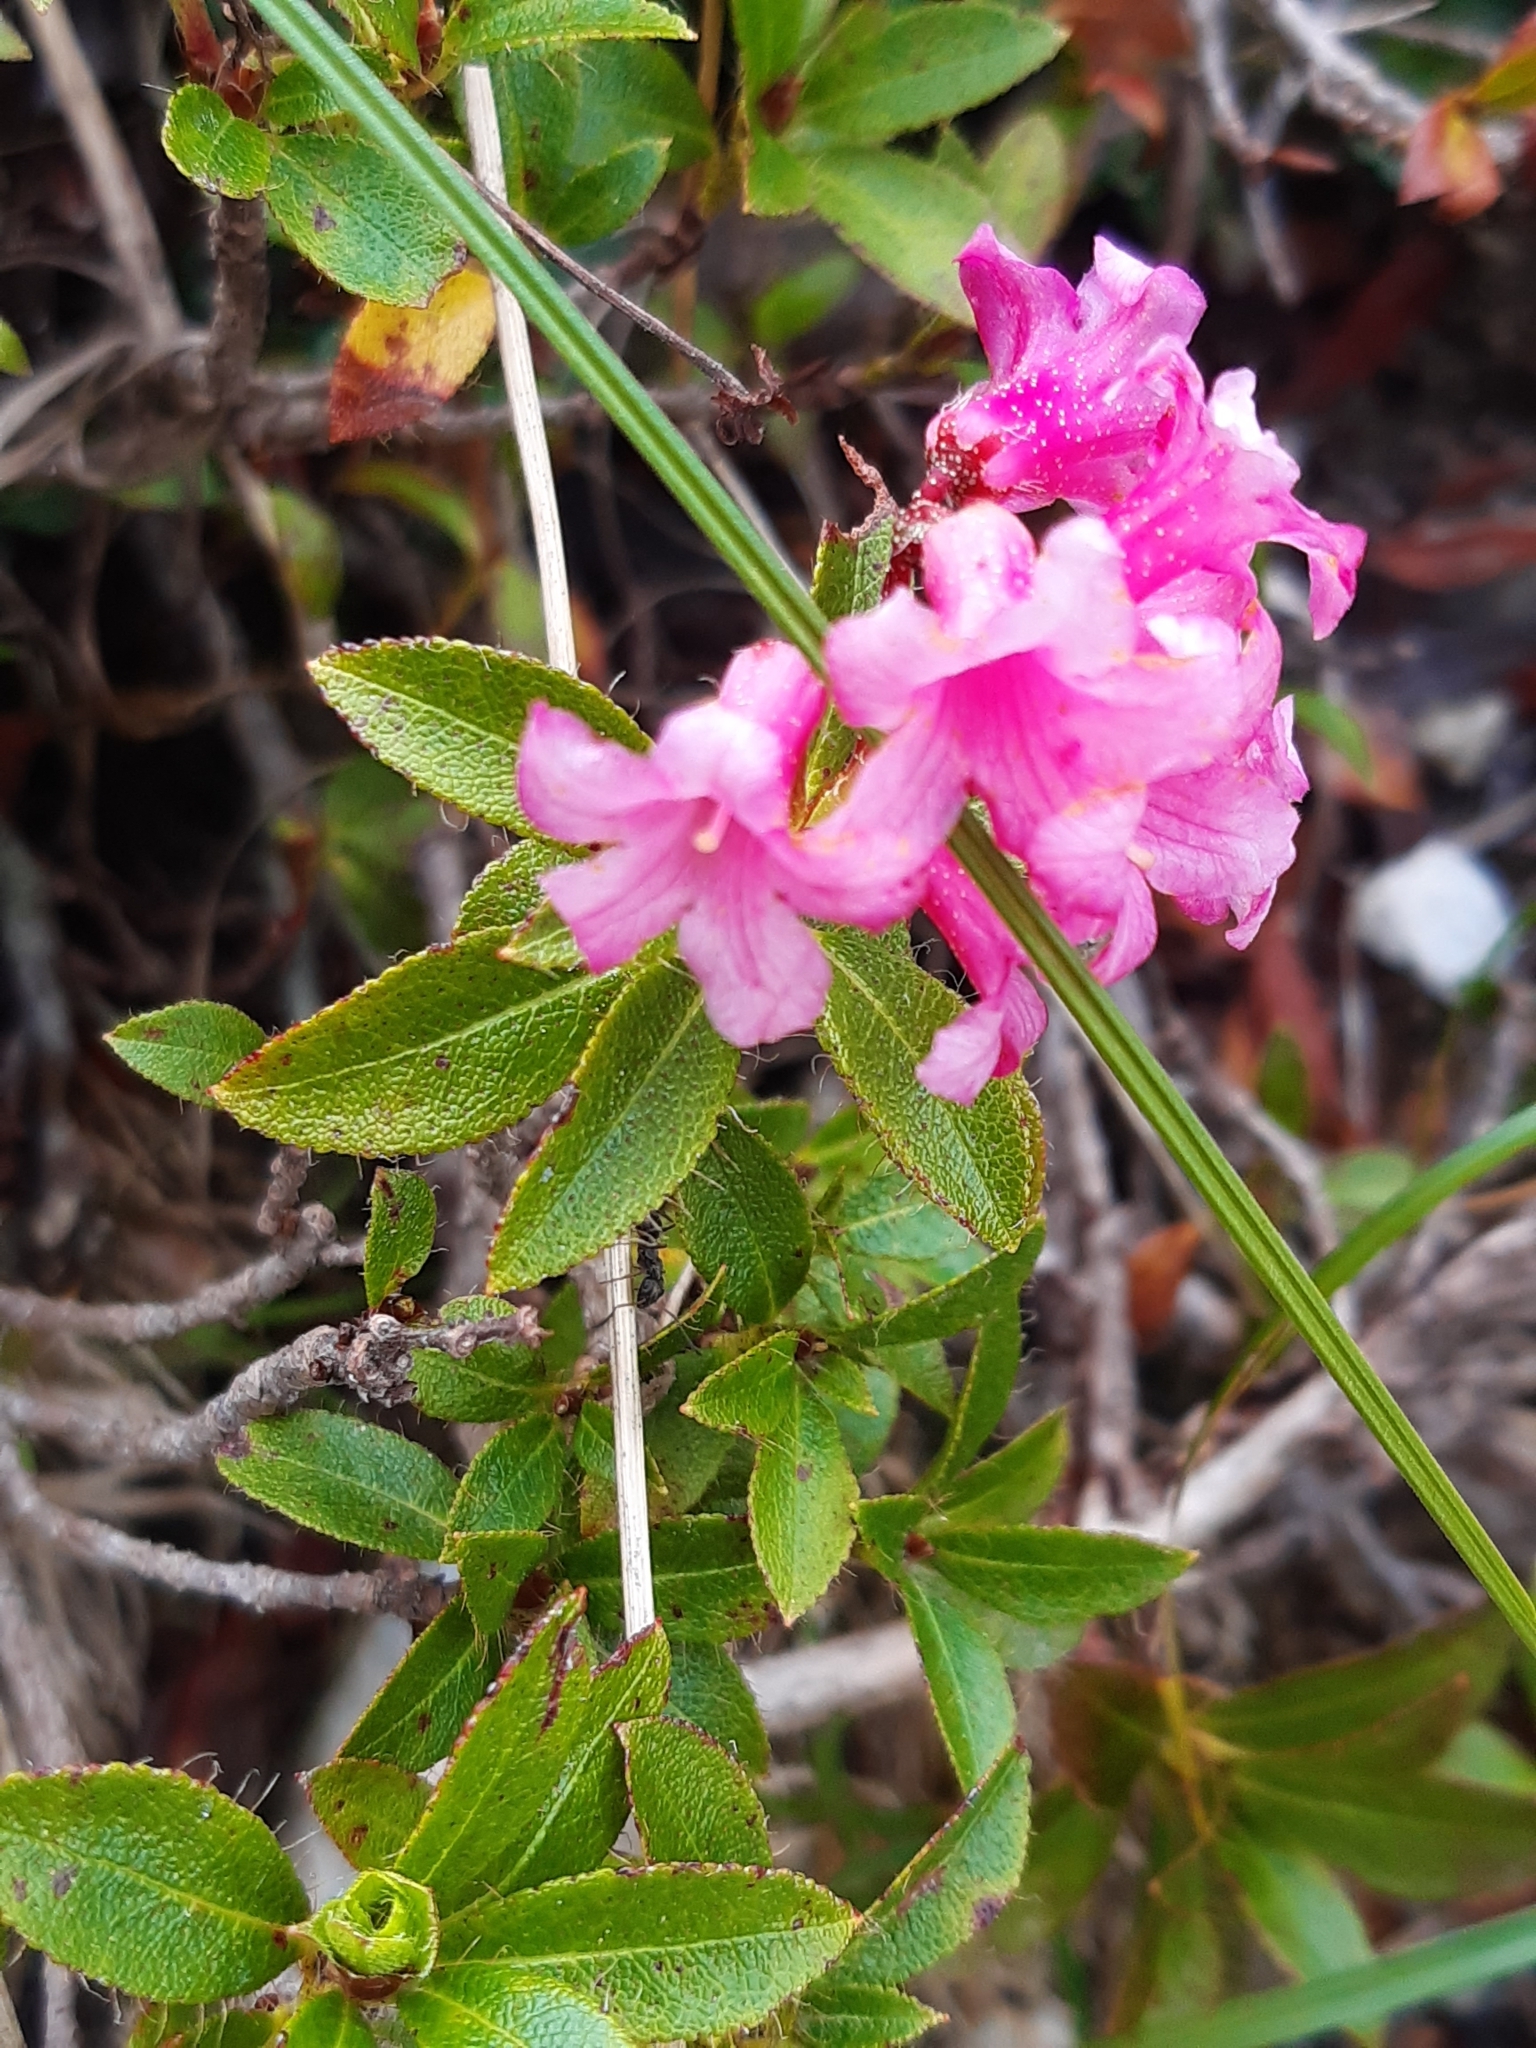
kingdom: Plantae
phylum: Tracheophyta
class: Magnoliopsida
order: Ericales
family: Ericaceae
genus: Rhododendron
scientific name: Rhododendron hirsutum
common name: Hairy alpenrose
